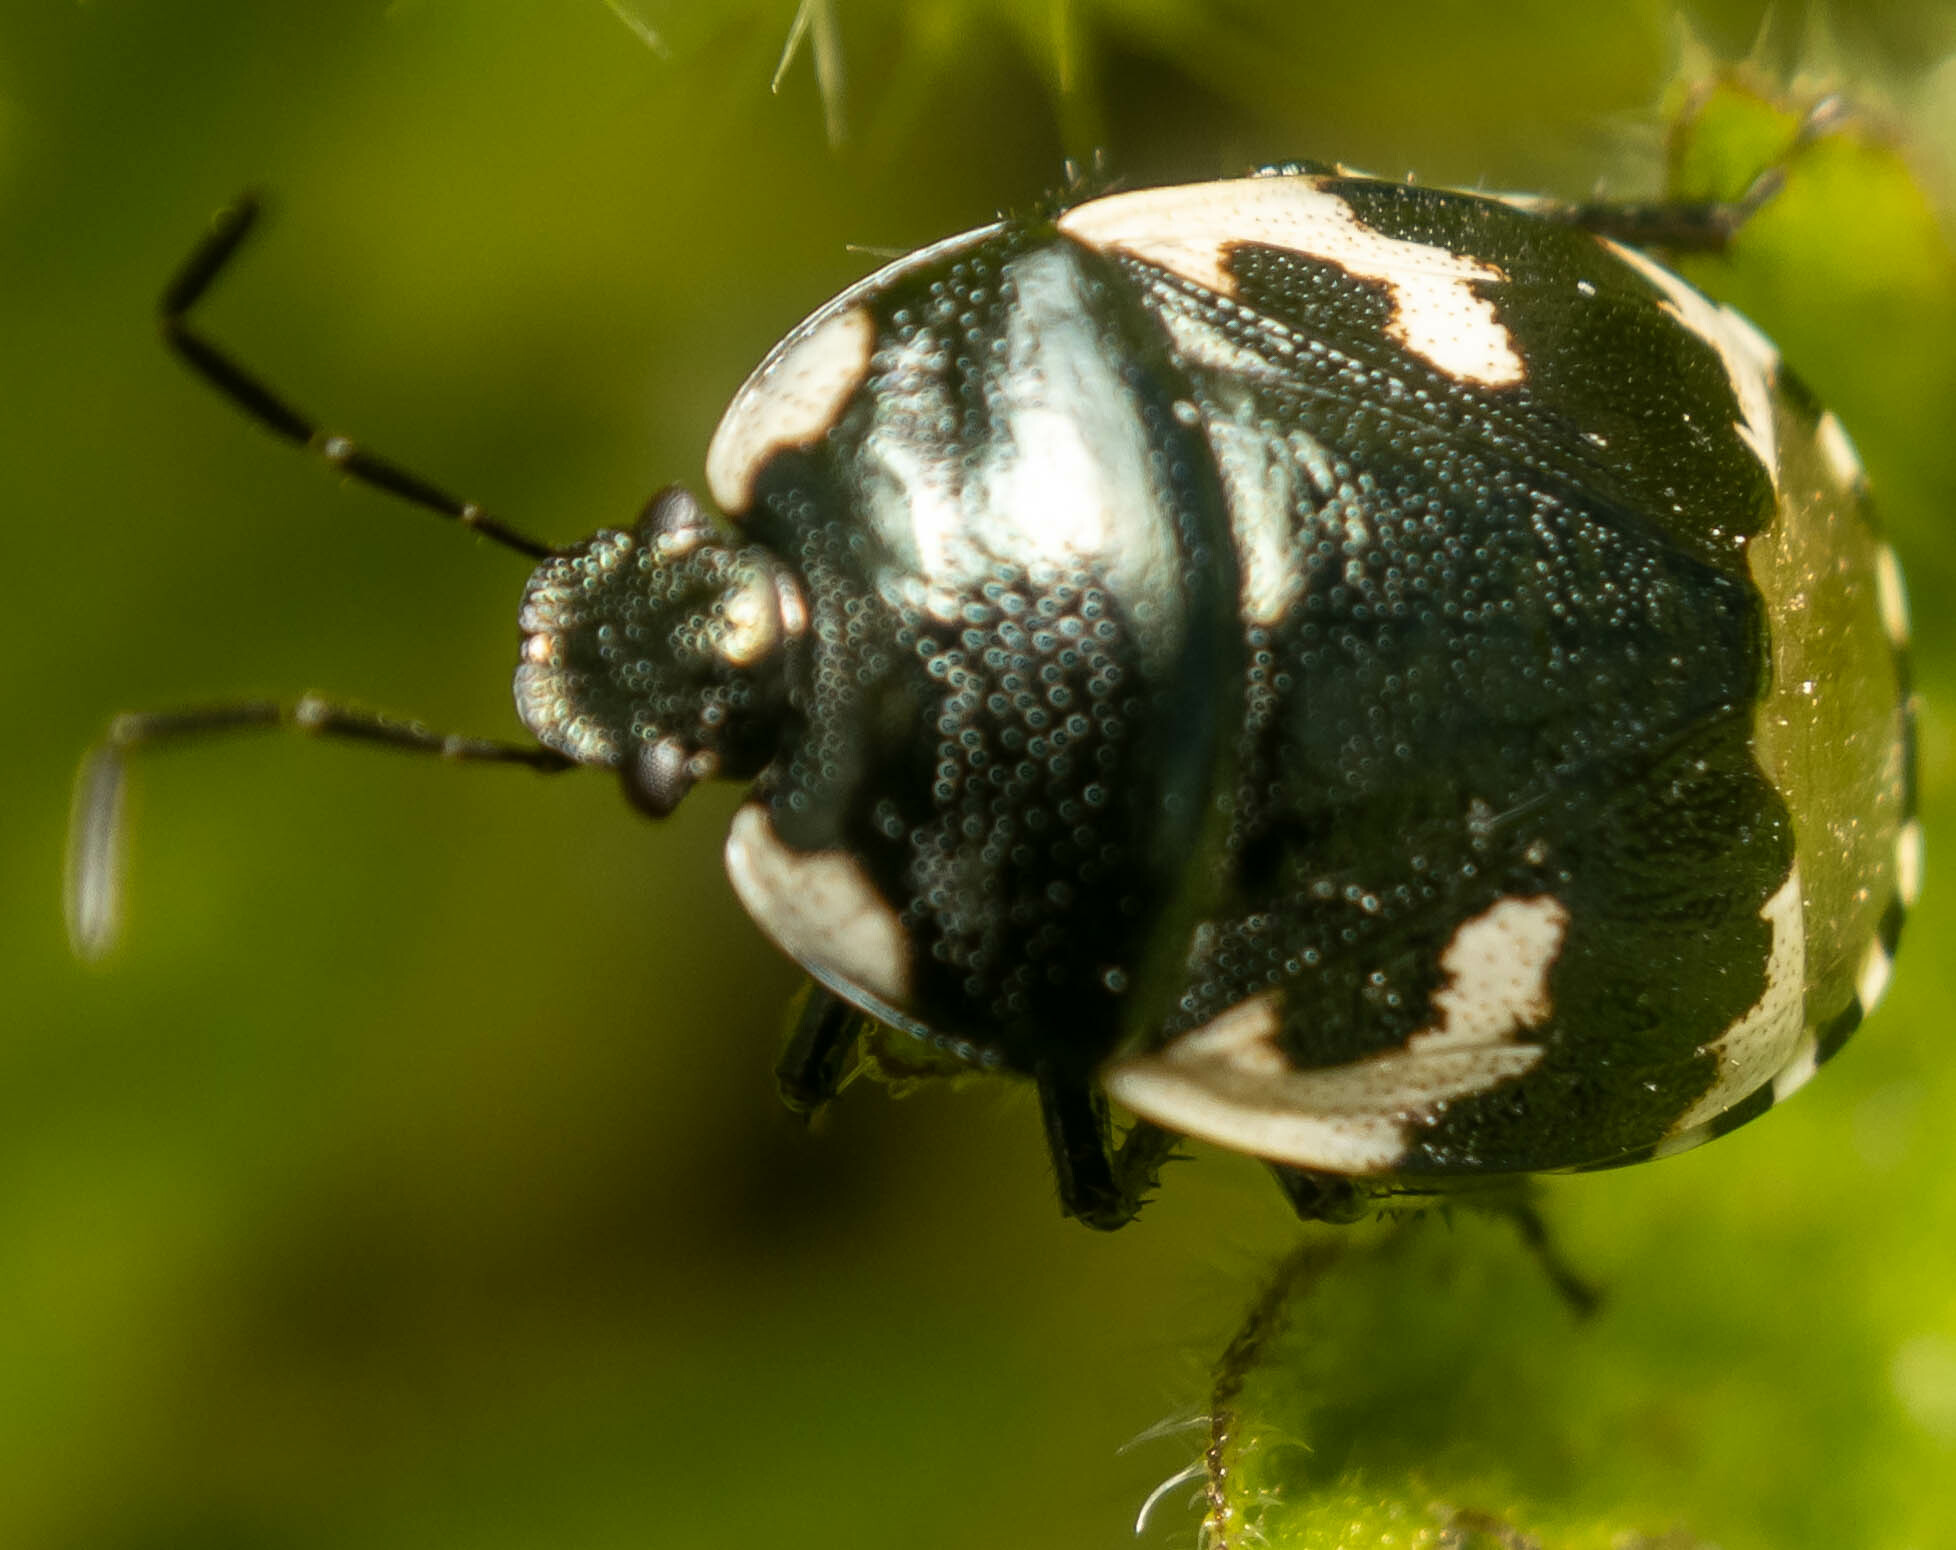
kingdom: Animalia
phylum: Arthropoda
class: Insecta
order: Hemiptera
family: Cydnidae
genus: Tritomegas
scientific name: Tritomegas bicolor
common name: Pied shieldbug
